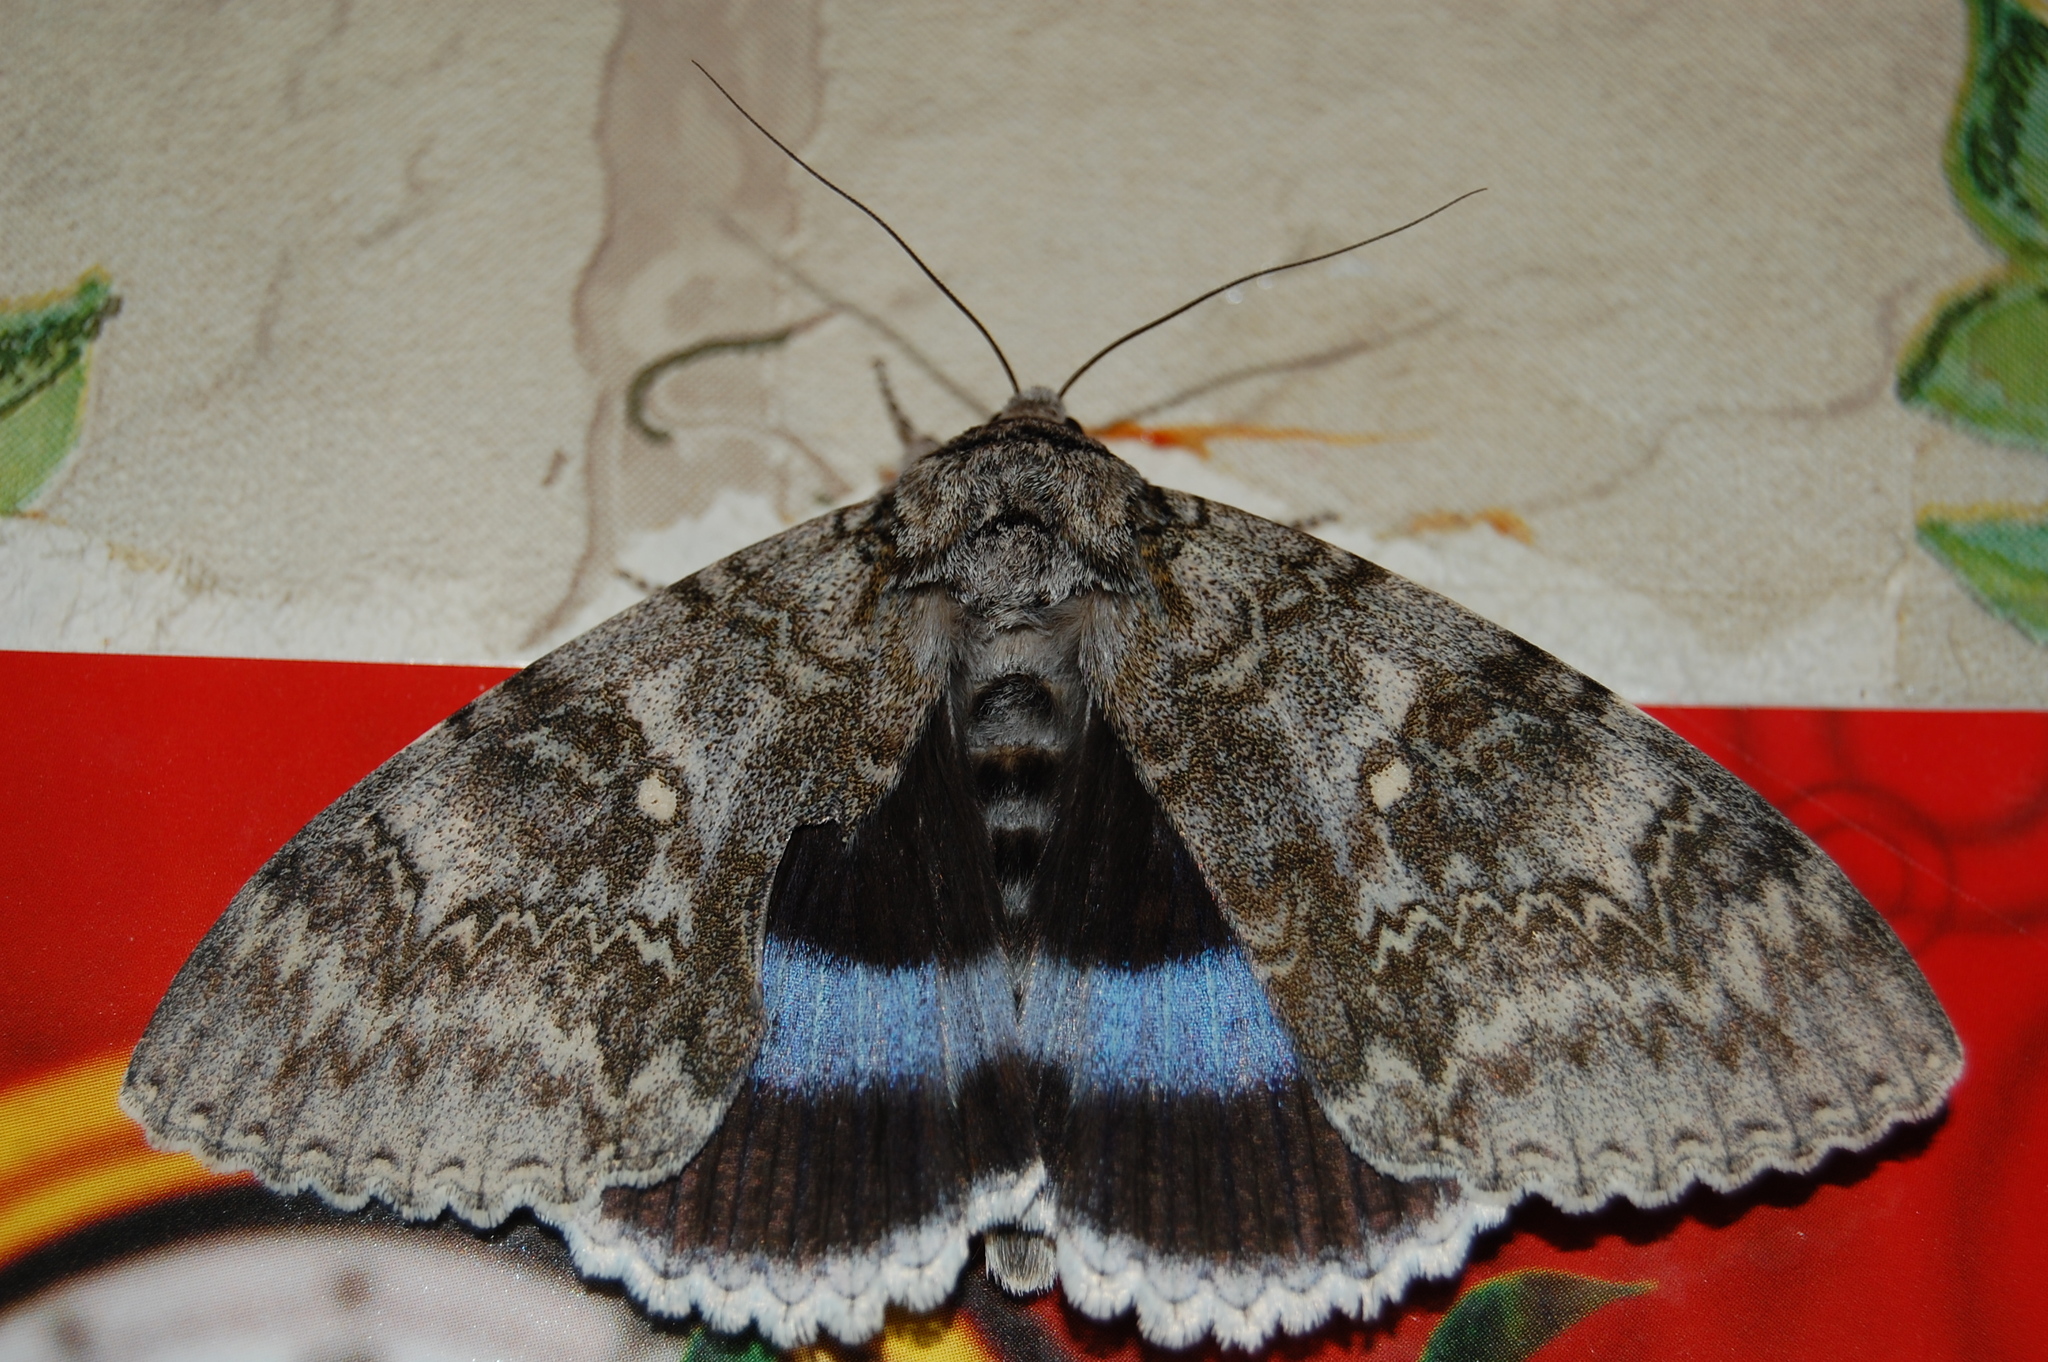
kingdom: Animalia
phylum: Arthropoda
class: Insecta
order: Lepidoptera
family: Erebidae
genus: Catocala
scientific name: Catocala fraxini
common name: Clifden nonpareil
